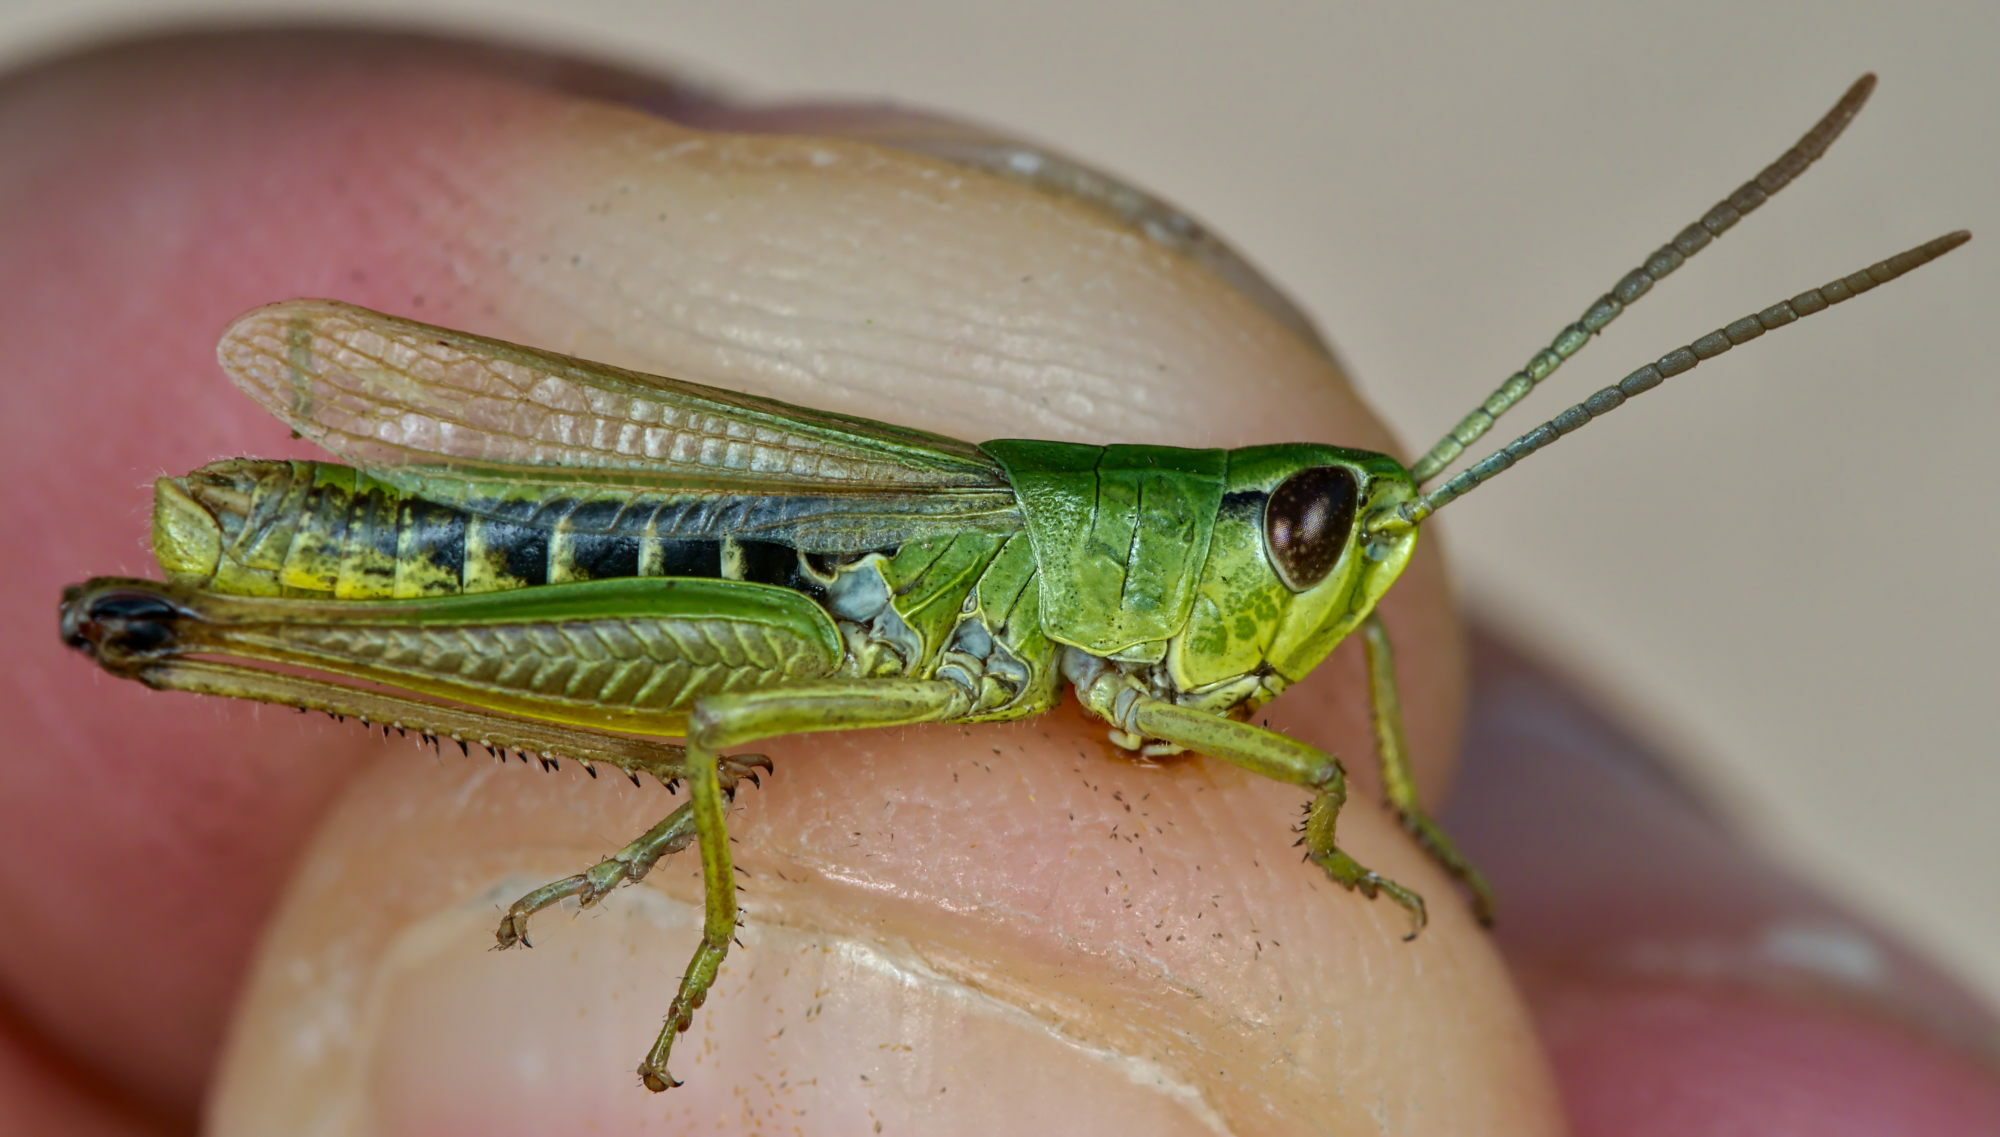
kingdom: Animalia
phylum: Arthropoda
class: Insecta
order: Orthoptera
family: Acrididae
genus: Pseudochorthippus
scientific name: Pseudochorthippus parallelus
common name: Meadow grasshopper
